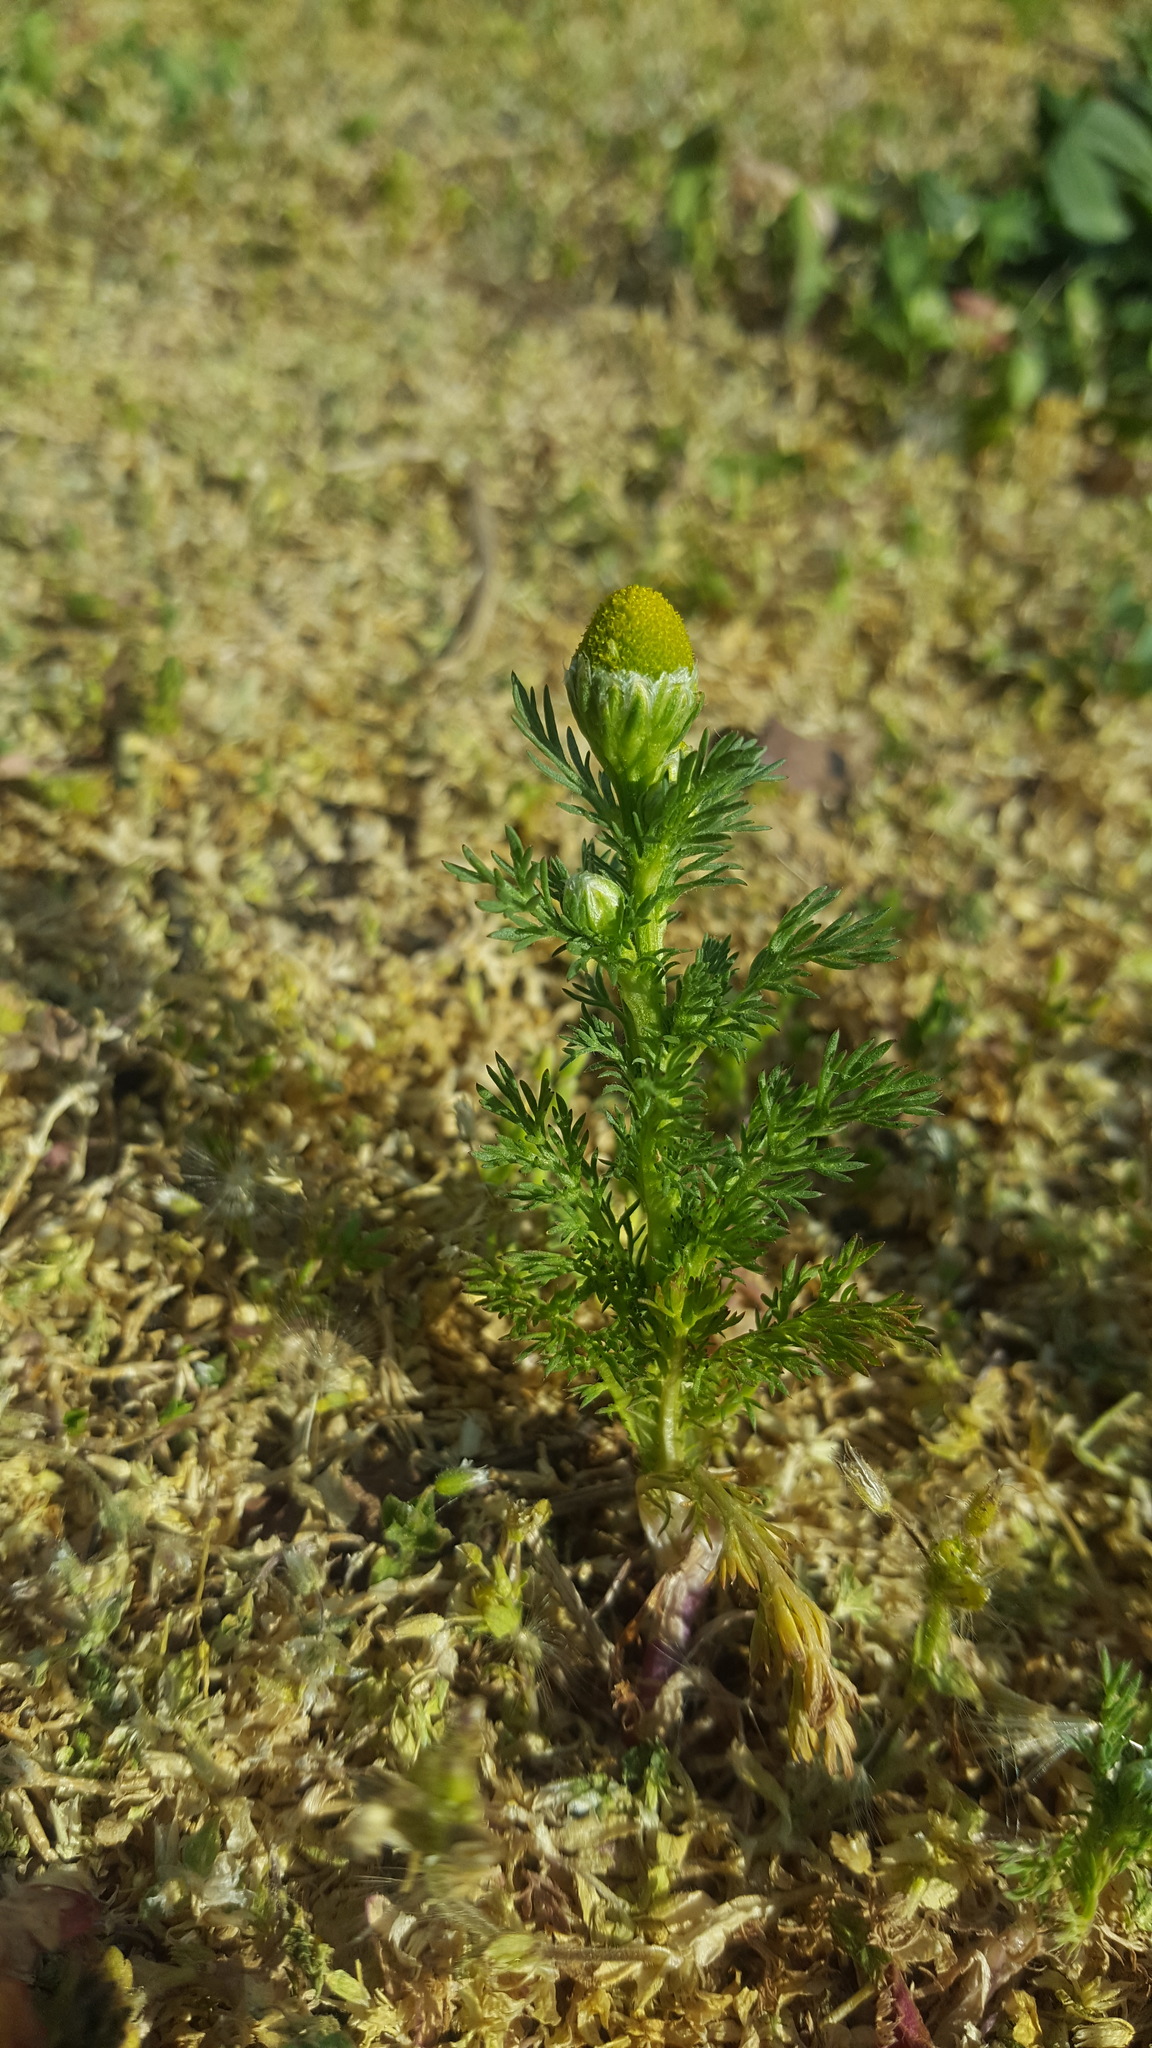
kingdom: Plantae
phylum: Tracheophyta
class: Magnoliopsida
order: Asterales
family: Asteraceae
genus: Matricaria
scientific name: Matricaria discoidea
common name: Disc mayweed
